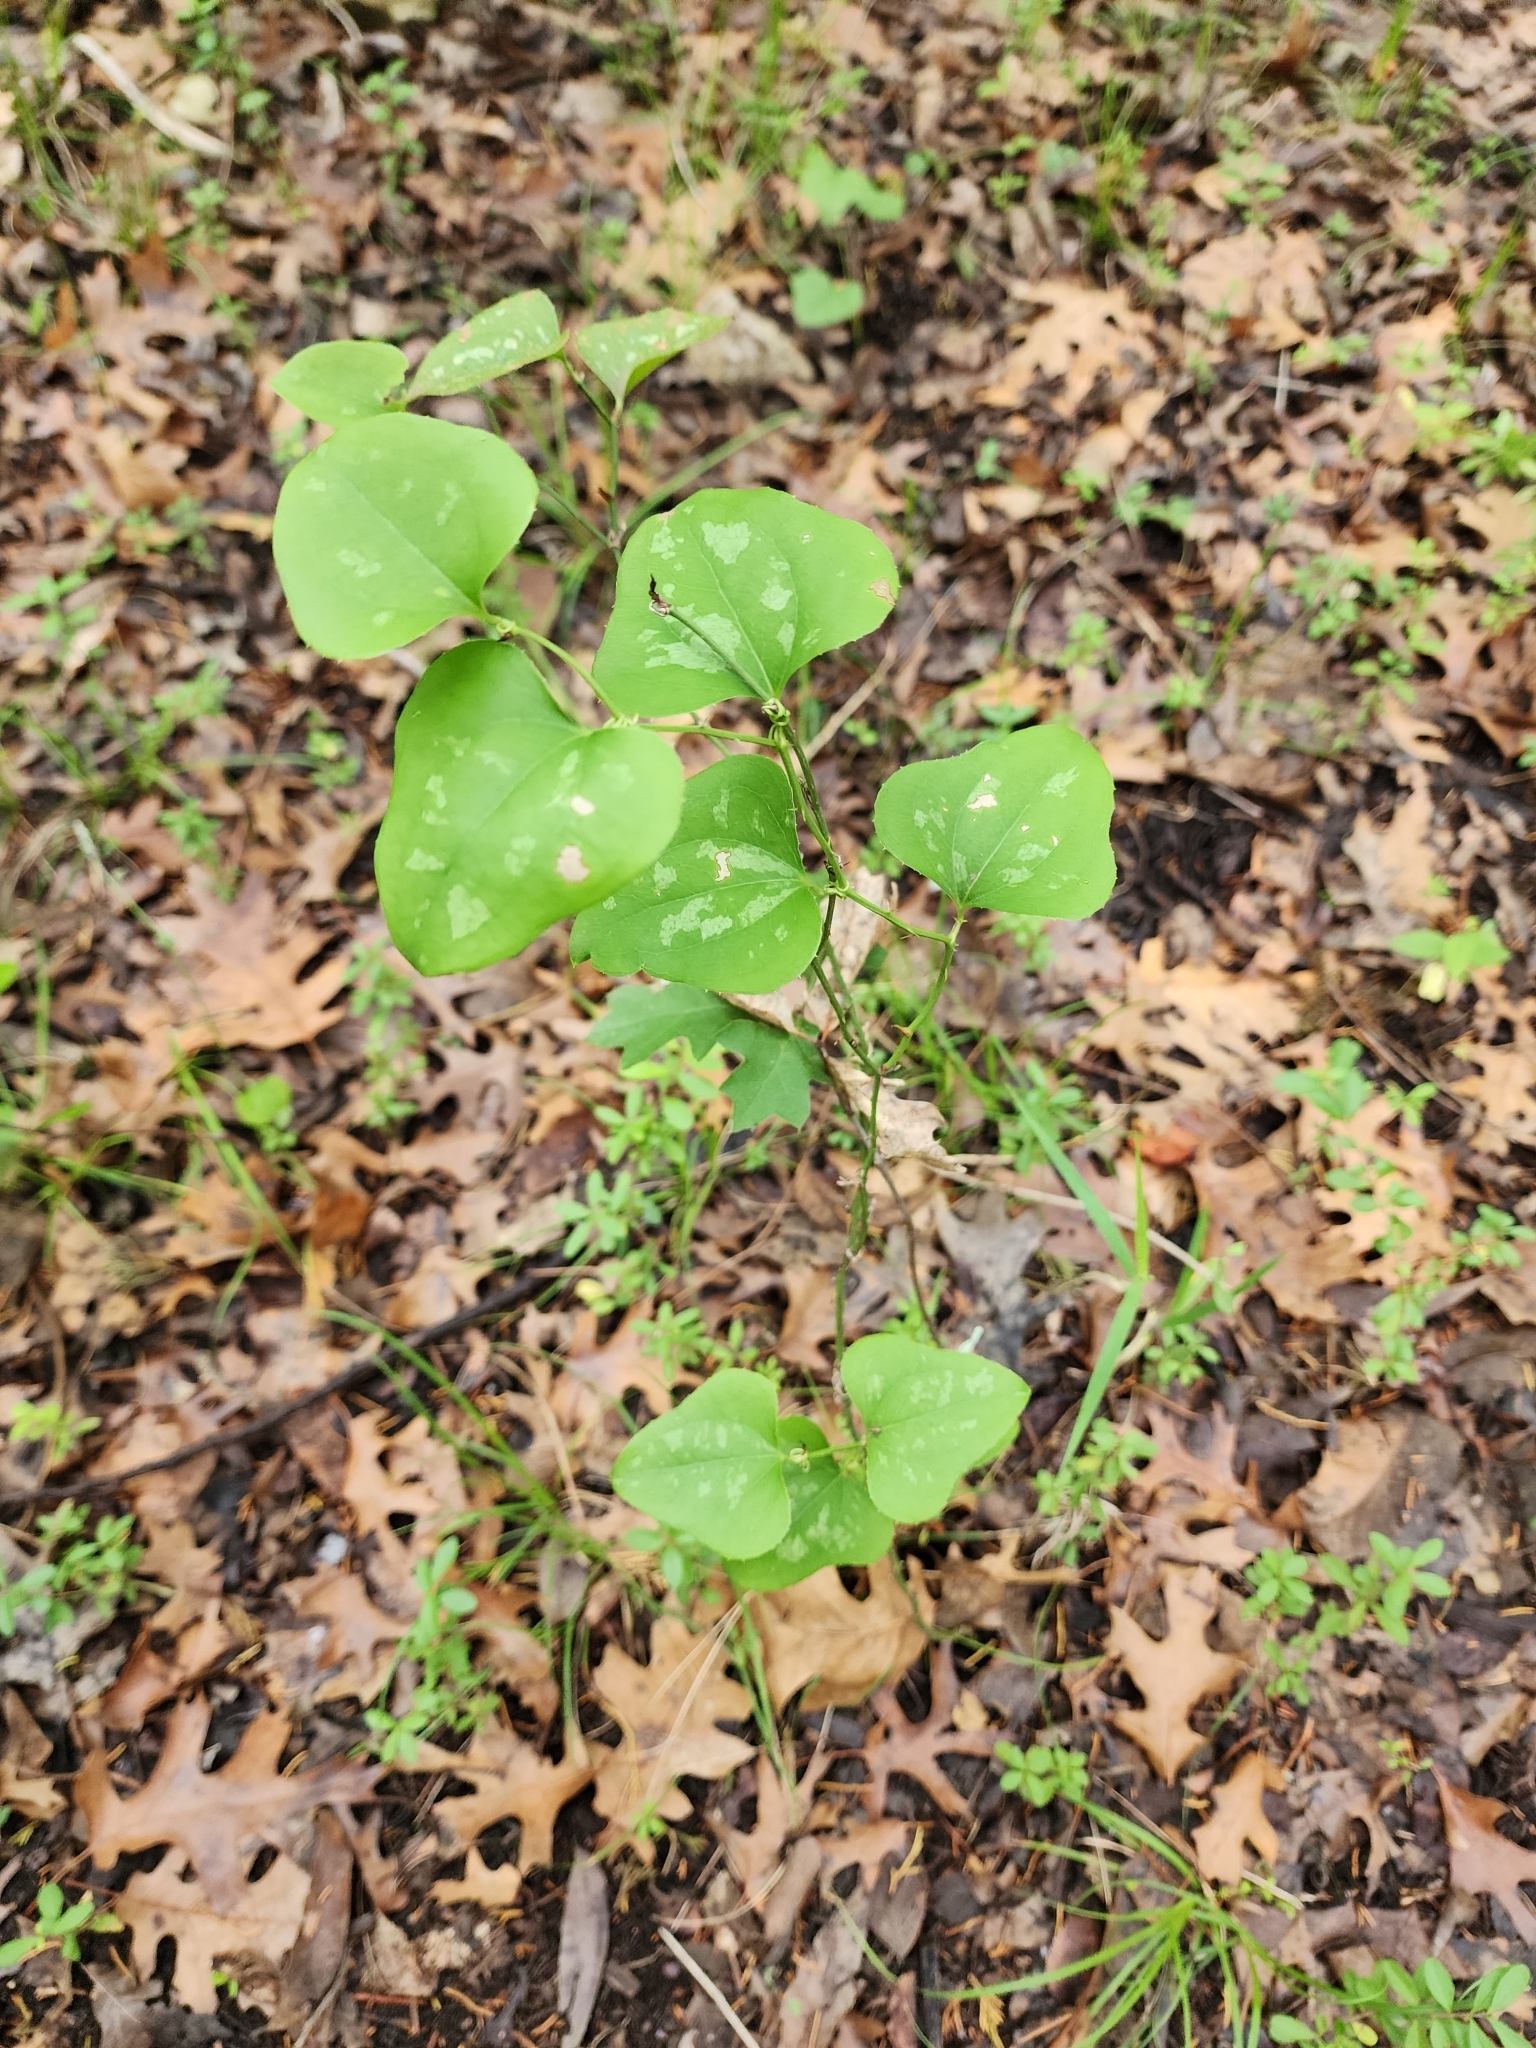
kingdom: Plantae
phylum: Tracheophyta
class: Liliopsida
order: Liliales
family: Smilacaceae
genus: Smilax
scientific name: Smilax bona-nox
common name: Catbrier
